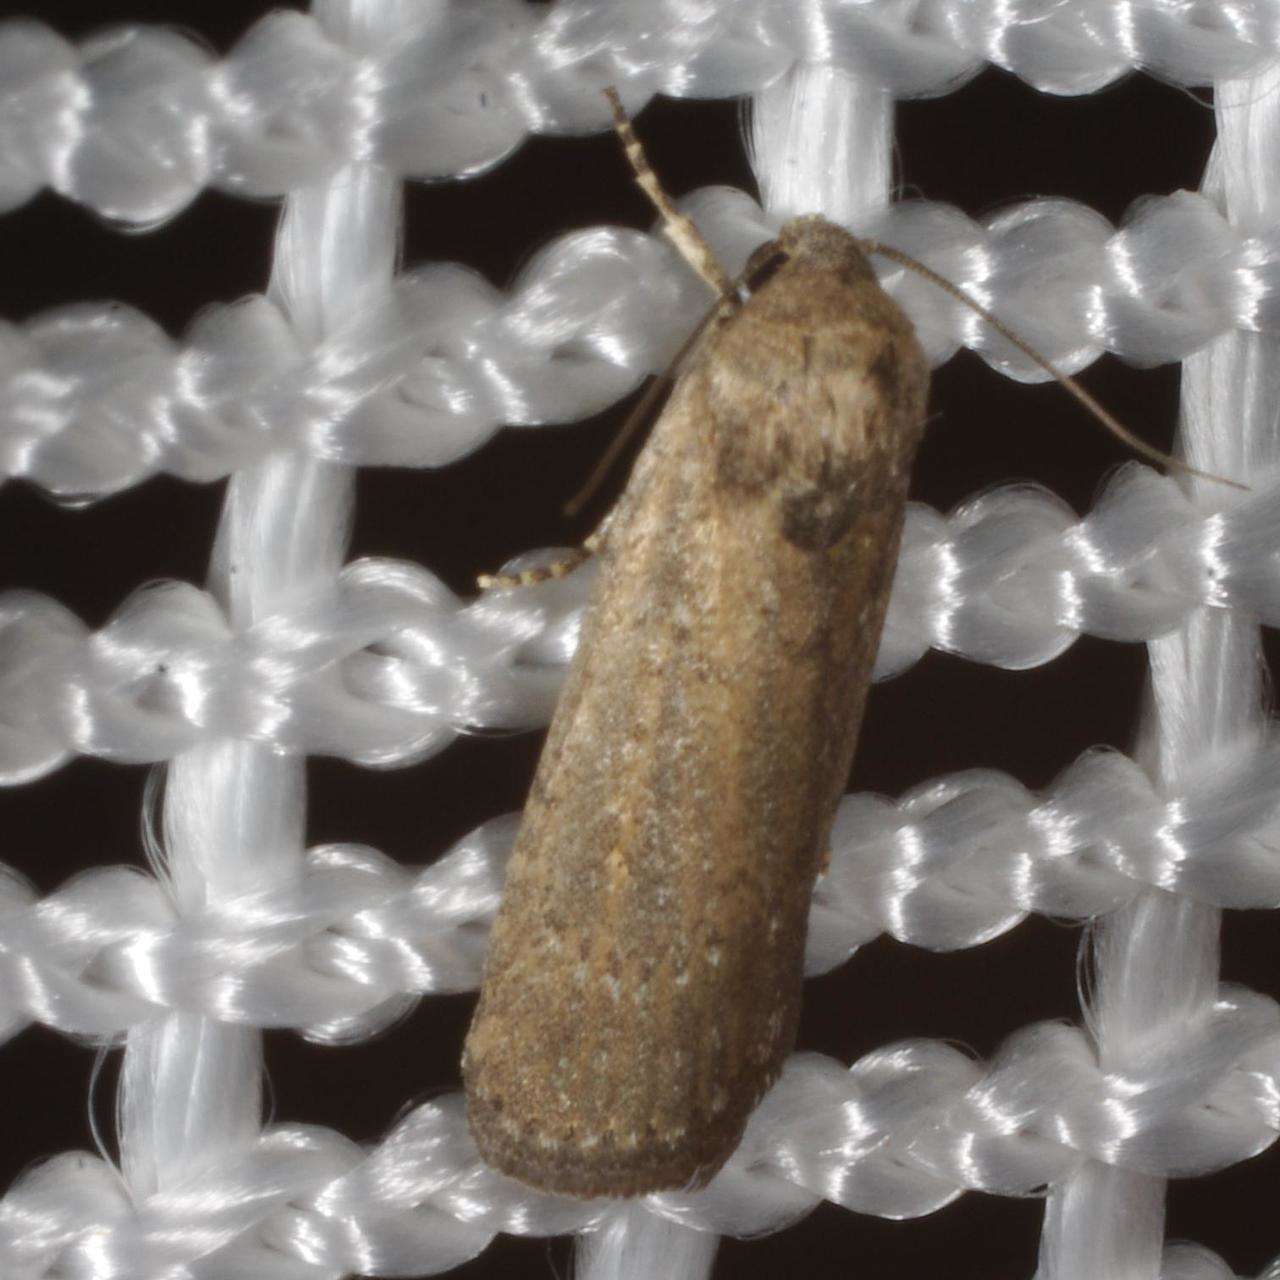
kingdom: Animalia
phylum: Arthropoda
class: Insecta
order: Lepidoptera
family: Noctuidae
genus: Athetis
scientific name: Athetis tenuis
